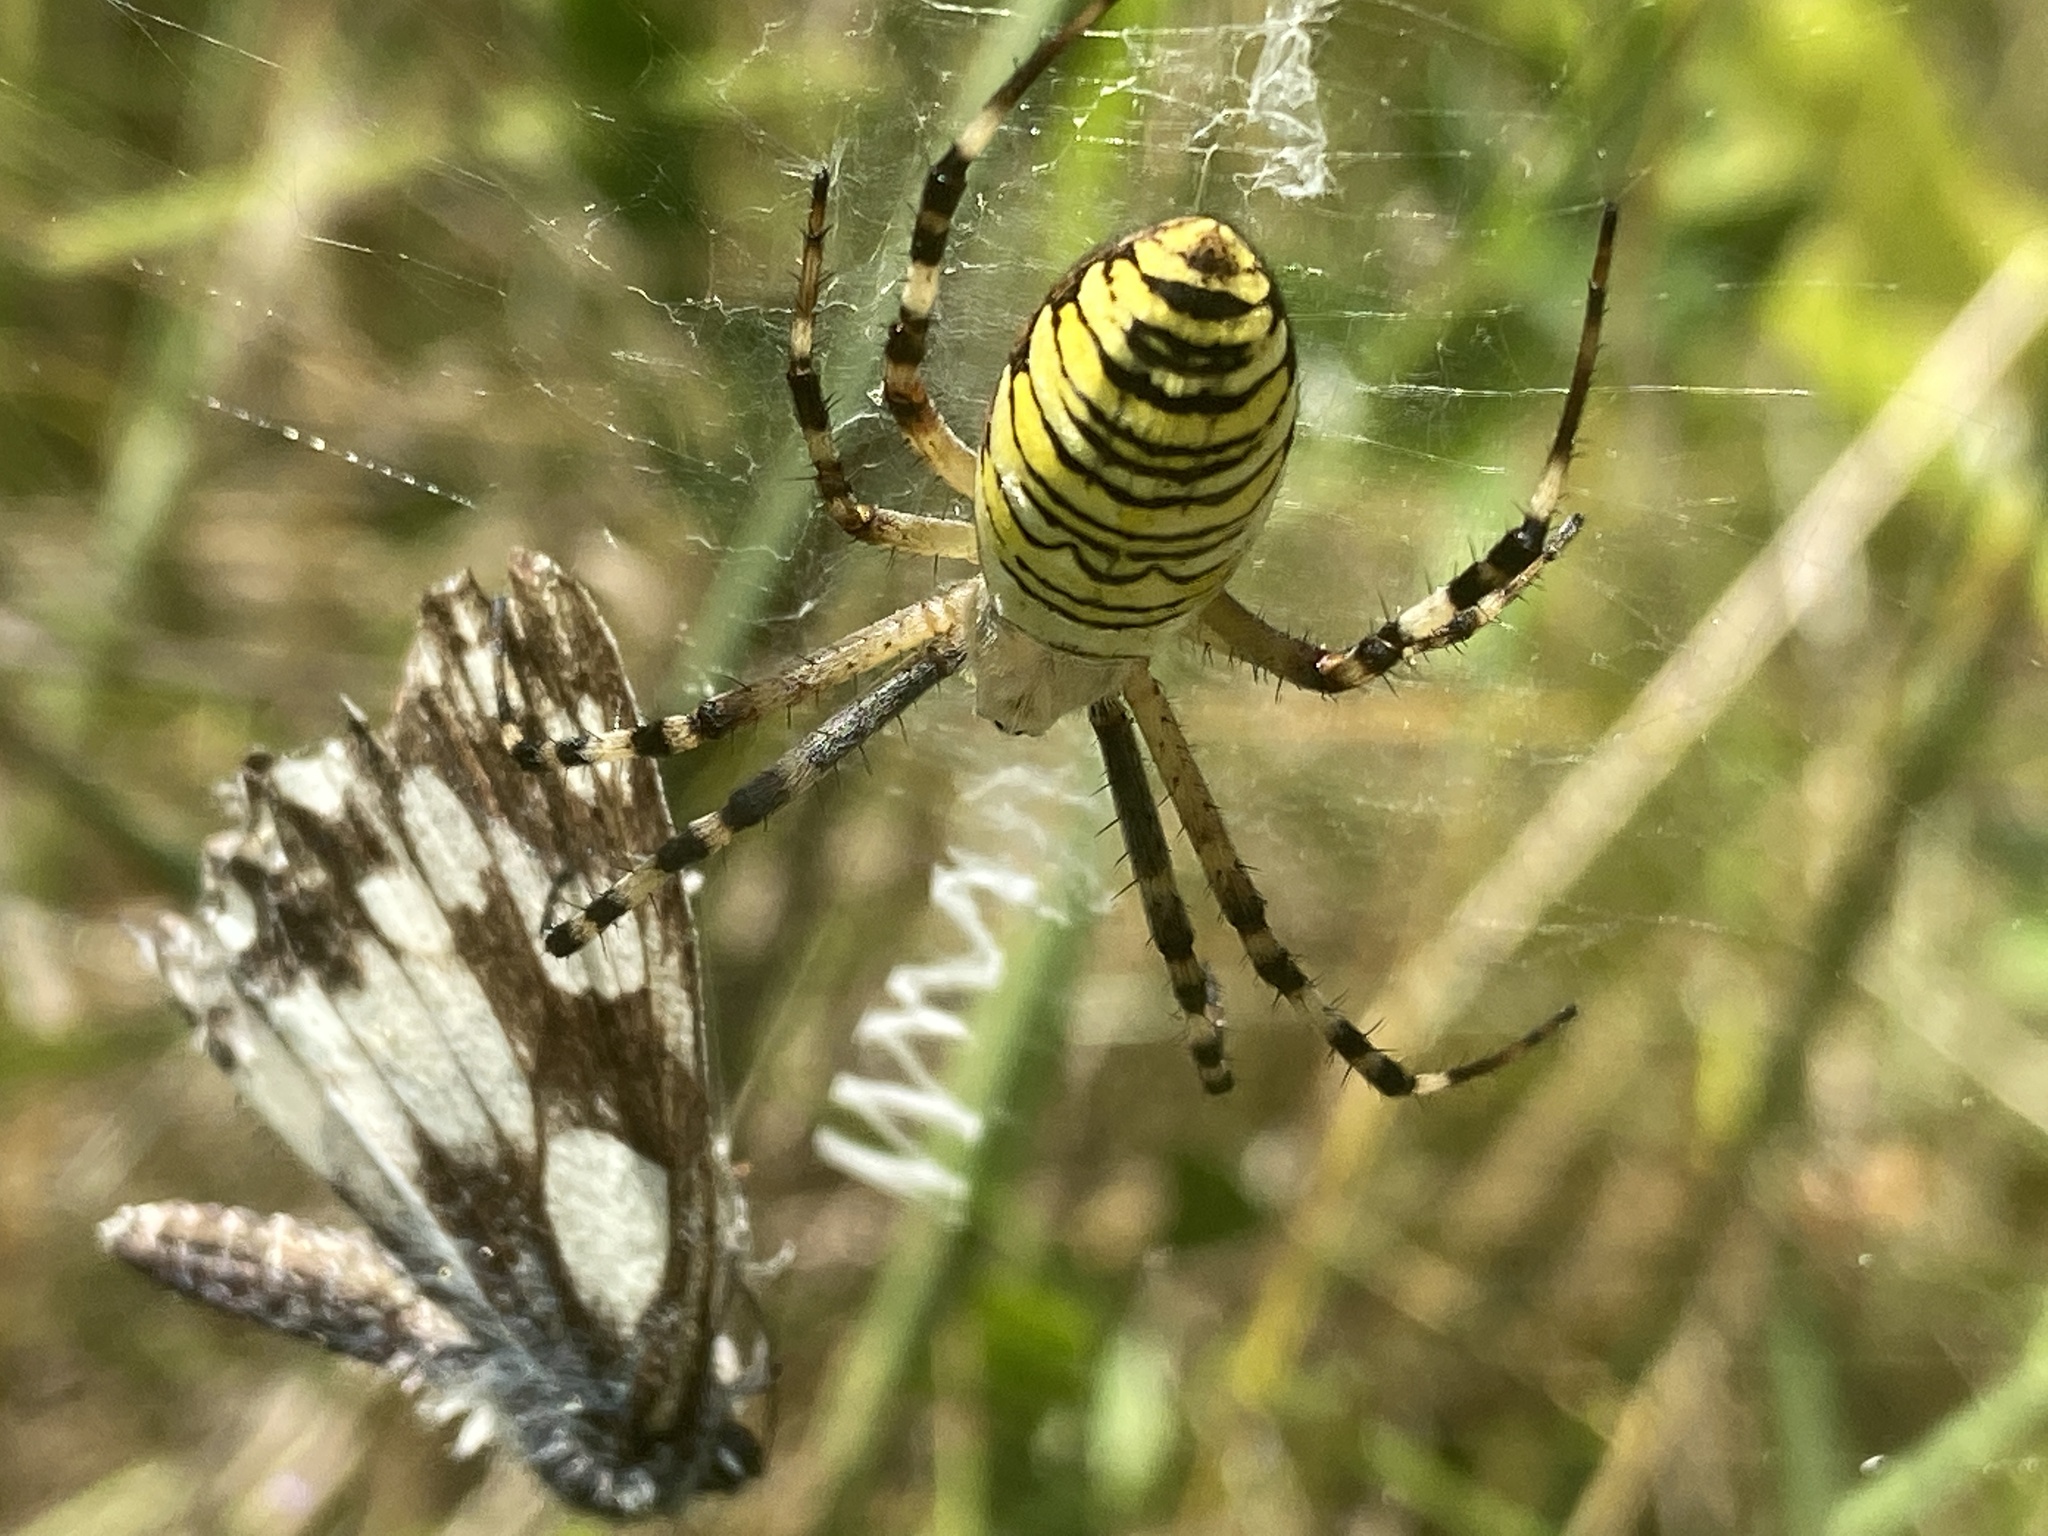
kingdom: Animalia
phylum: Arthropoda
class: Arachnida
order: Araneae
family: Araneidae
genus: Argiope
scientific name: Argiope bruennichi
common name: Wasp spider
